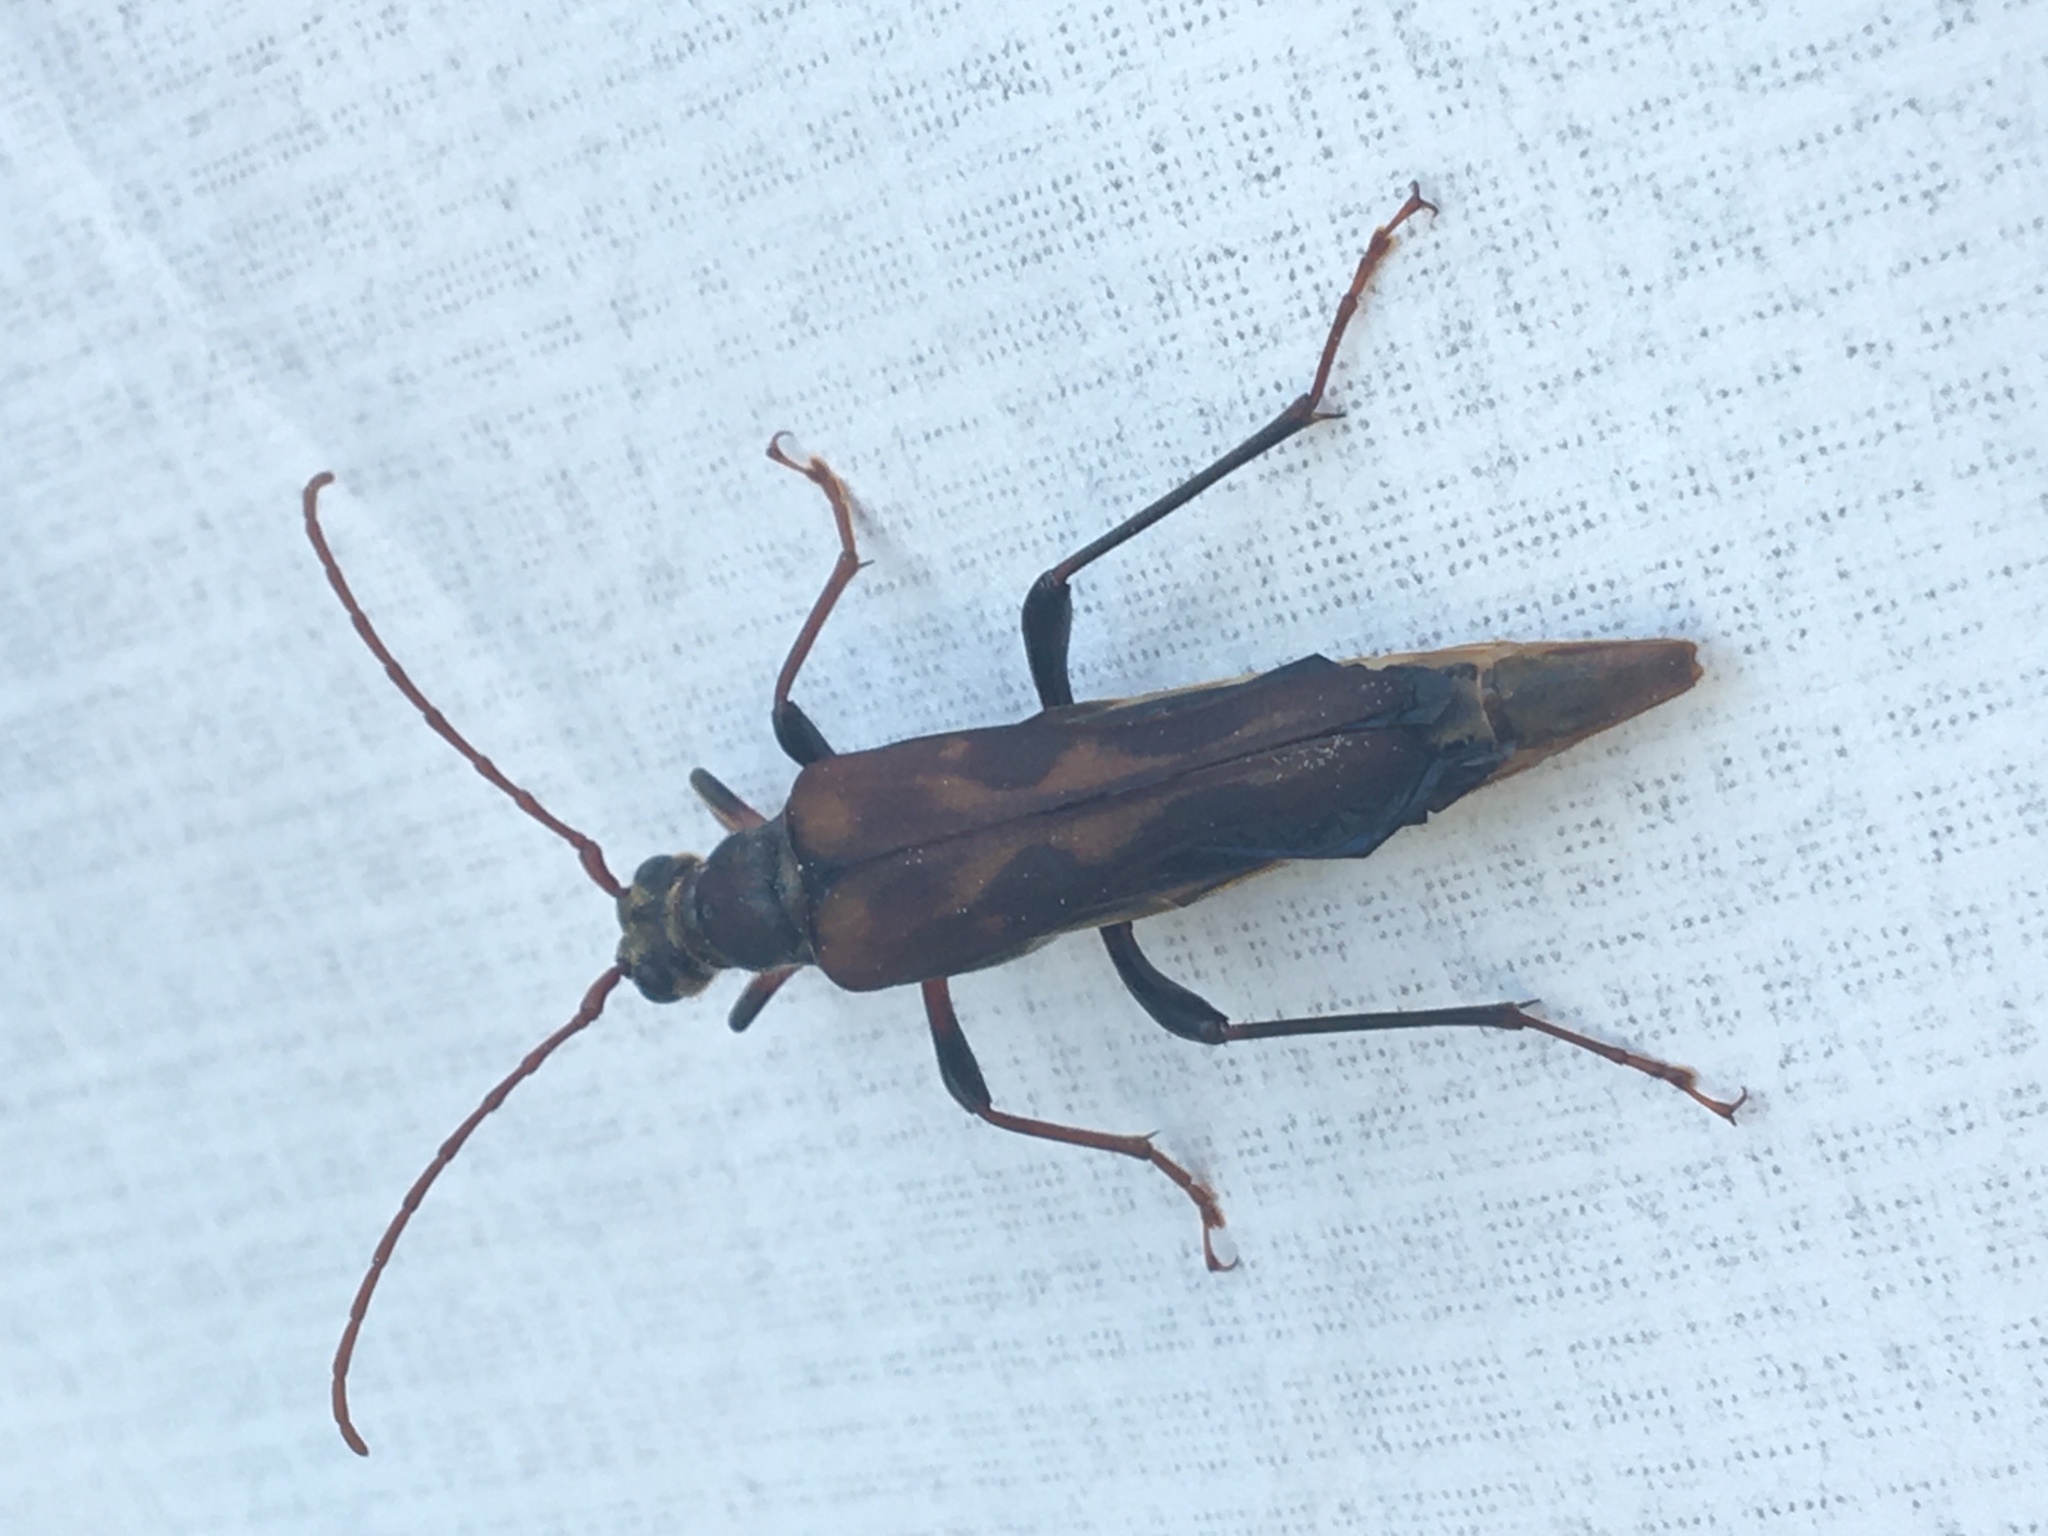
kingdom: Animalia
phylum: Arthropoda
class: Insecta
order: Coleoptera
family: Cerambycidae
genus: Bellamira
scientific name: Bellamira scalaris
